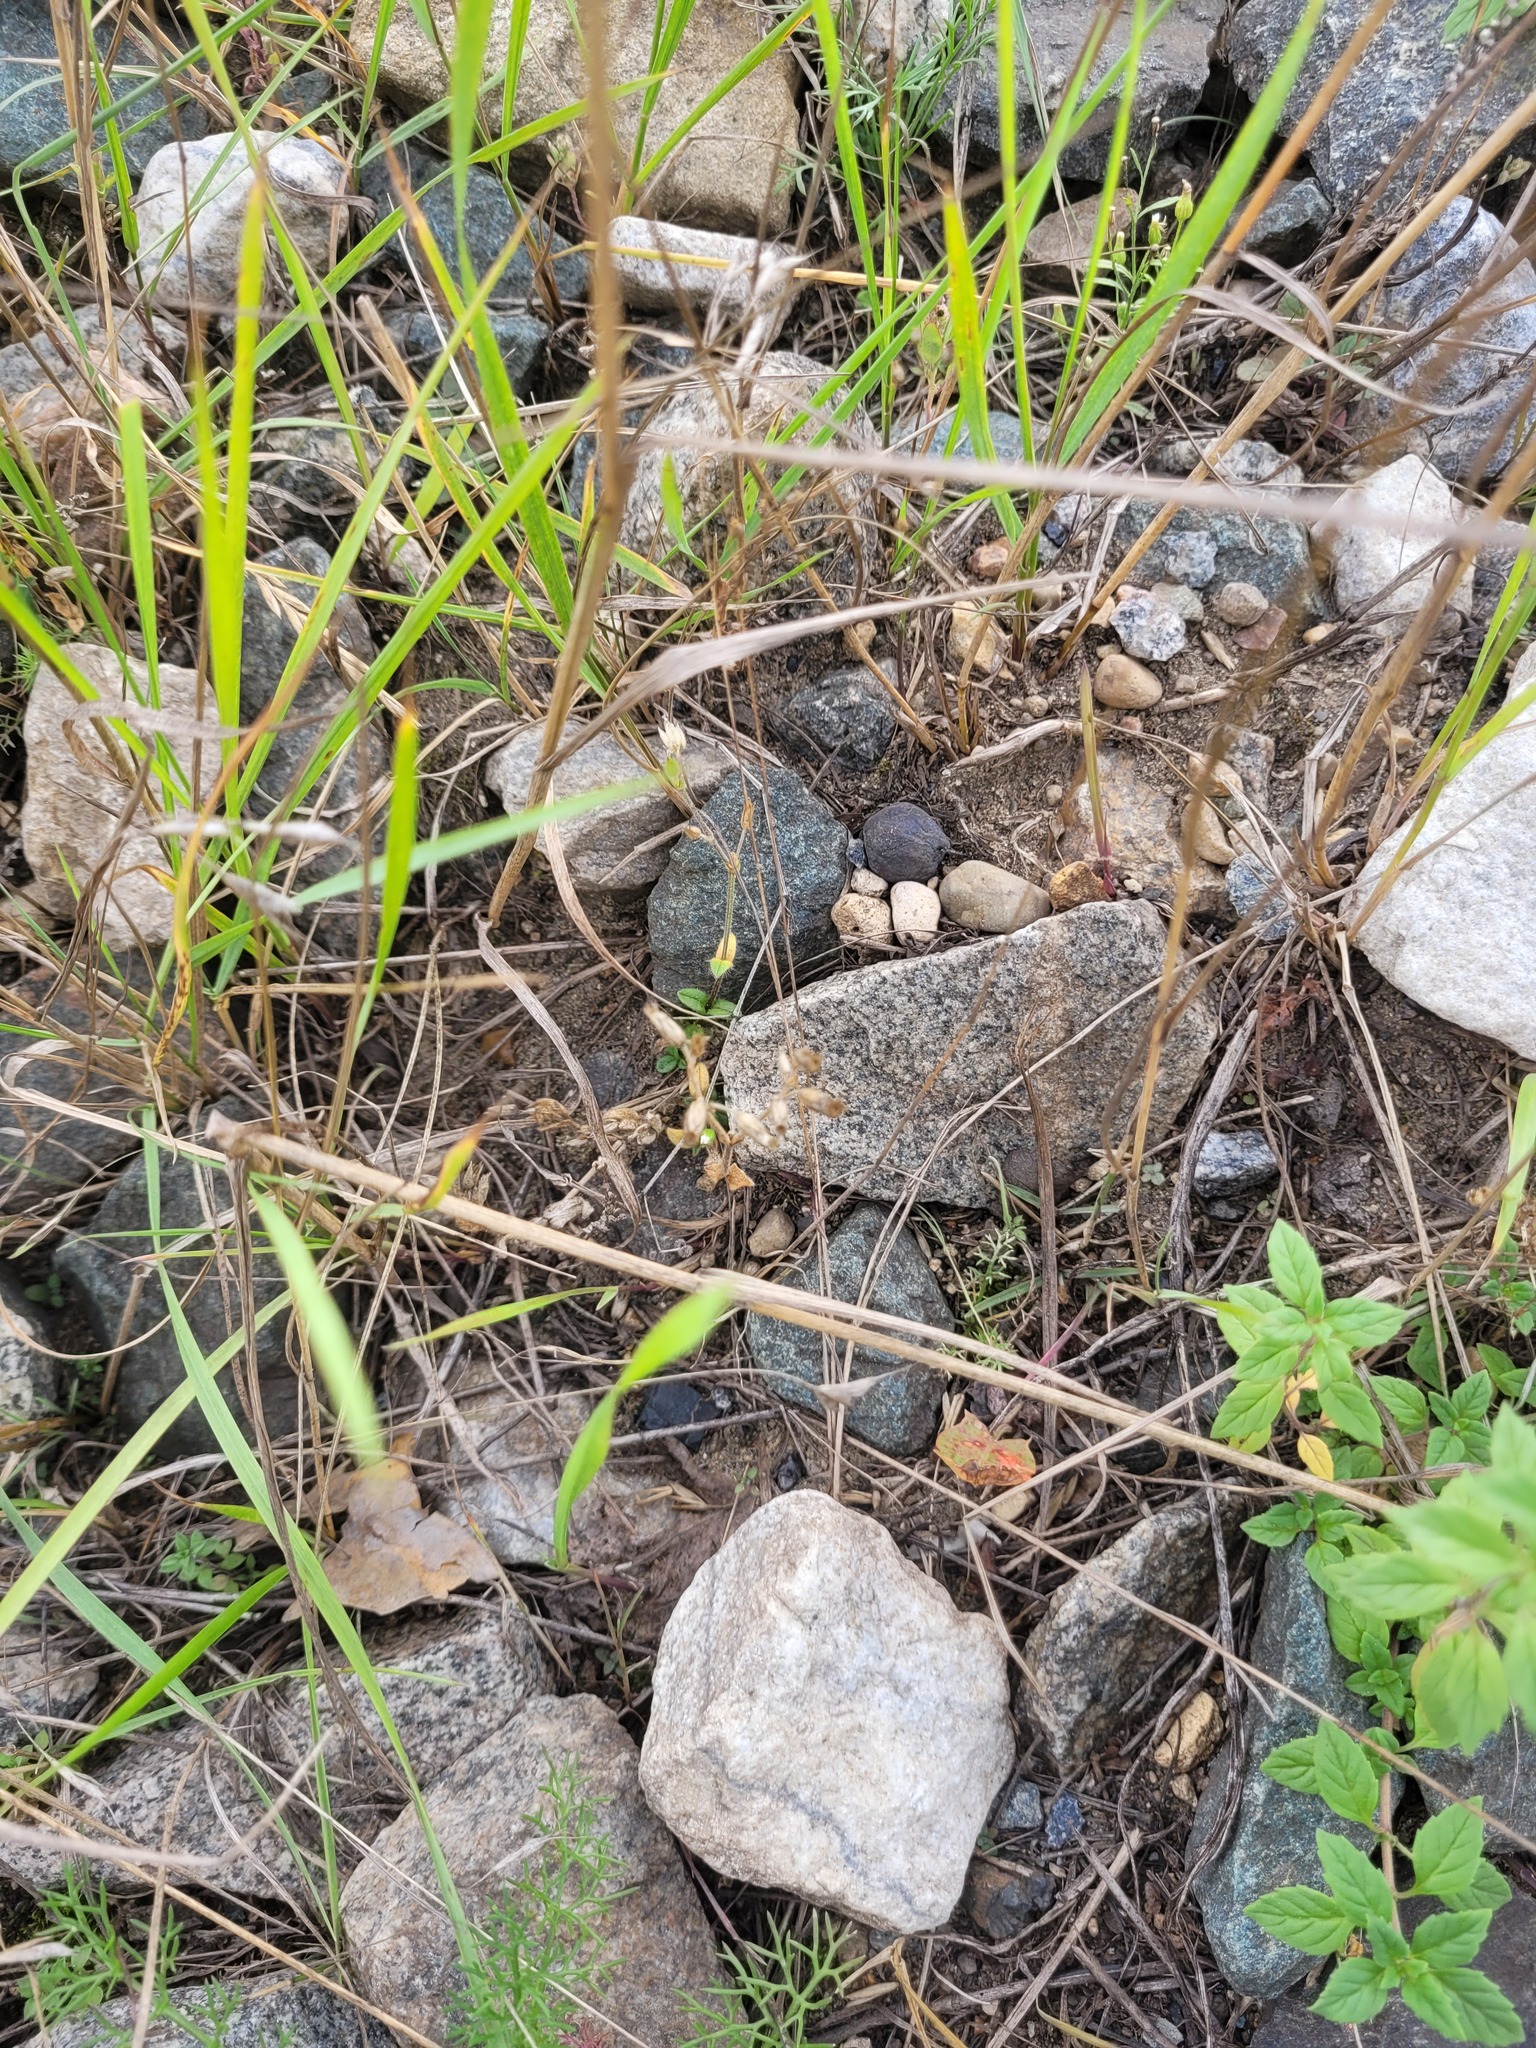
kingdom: Plantae
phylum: Tracheophyta
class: Magnoliopsida
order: Caryophyllales
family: Caryophyllaceae
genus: Cerastium
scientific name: Cerastium holosteoides
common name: Big chickweed
